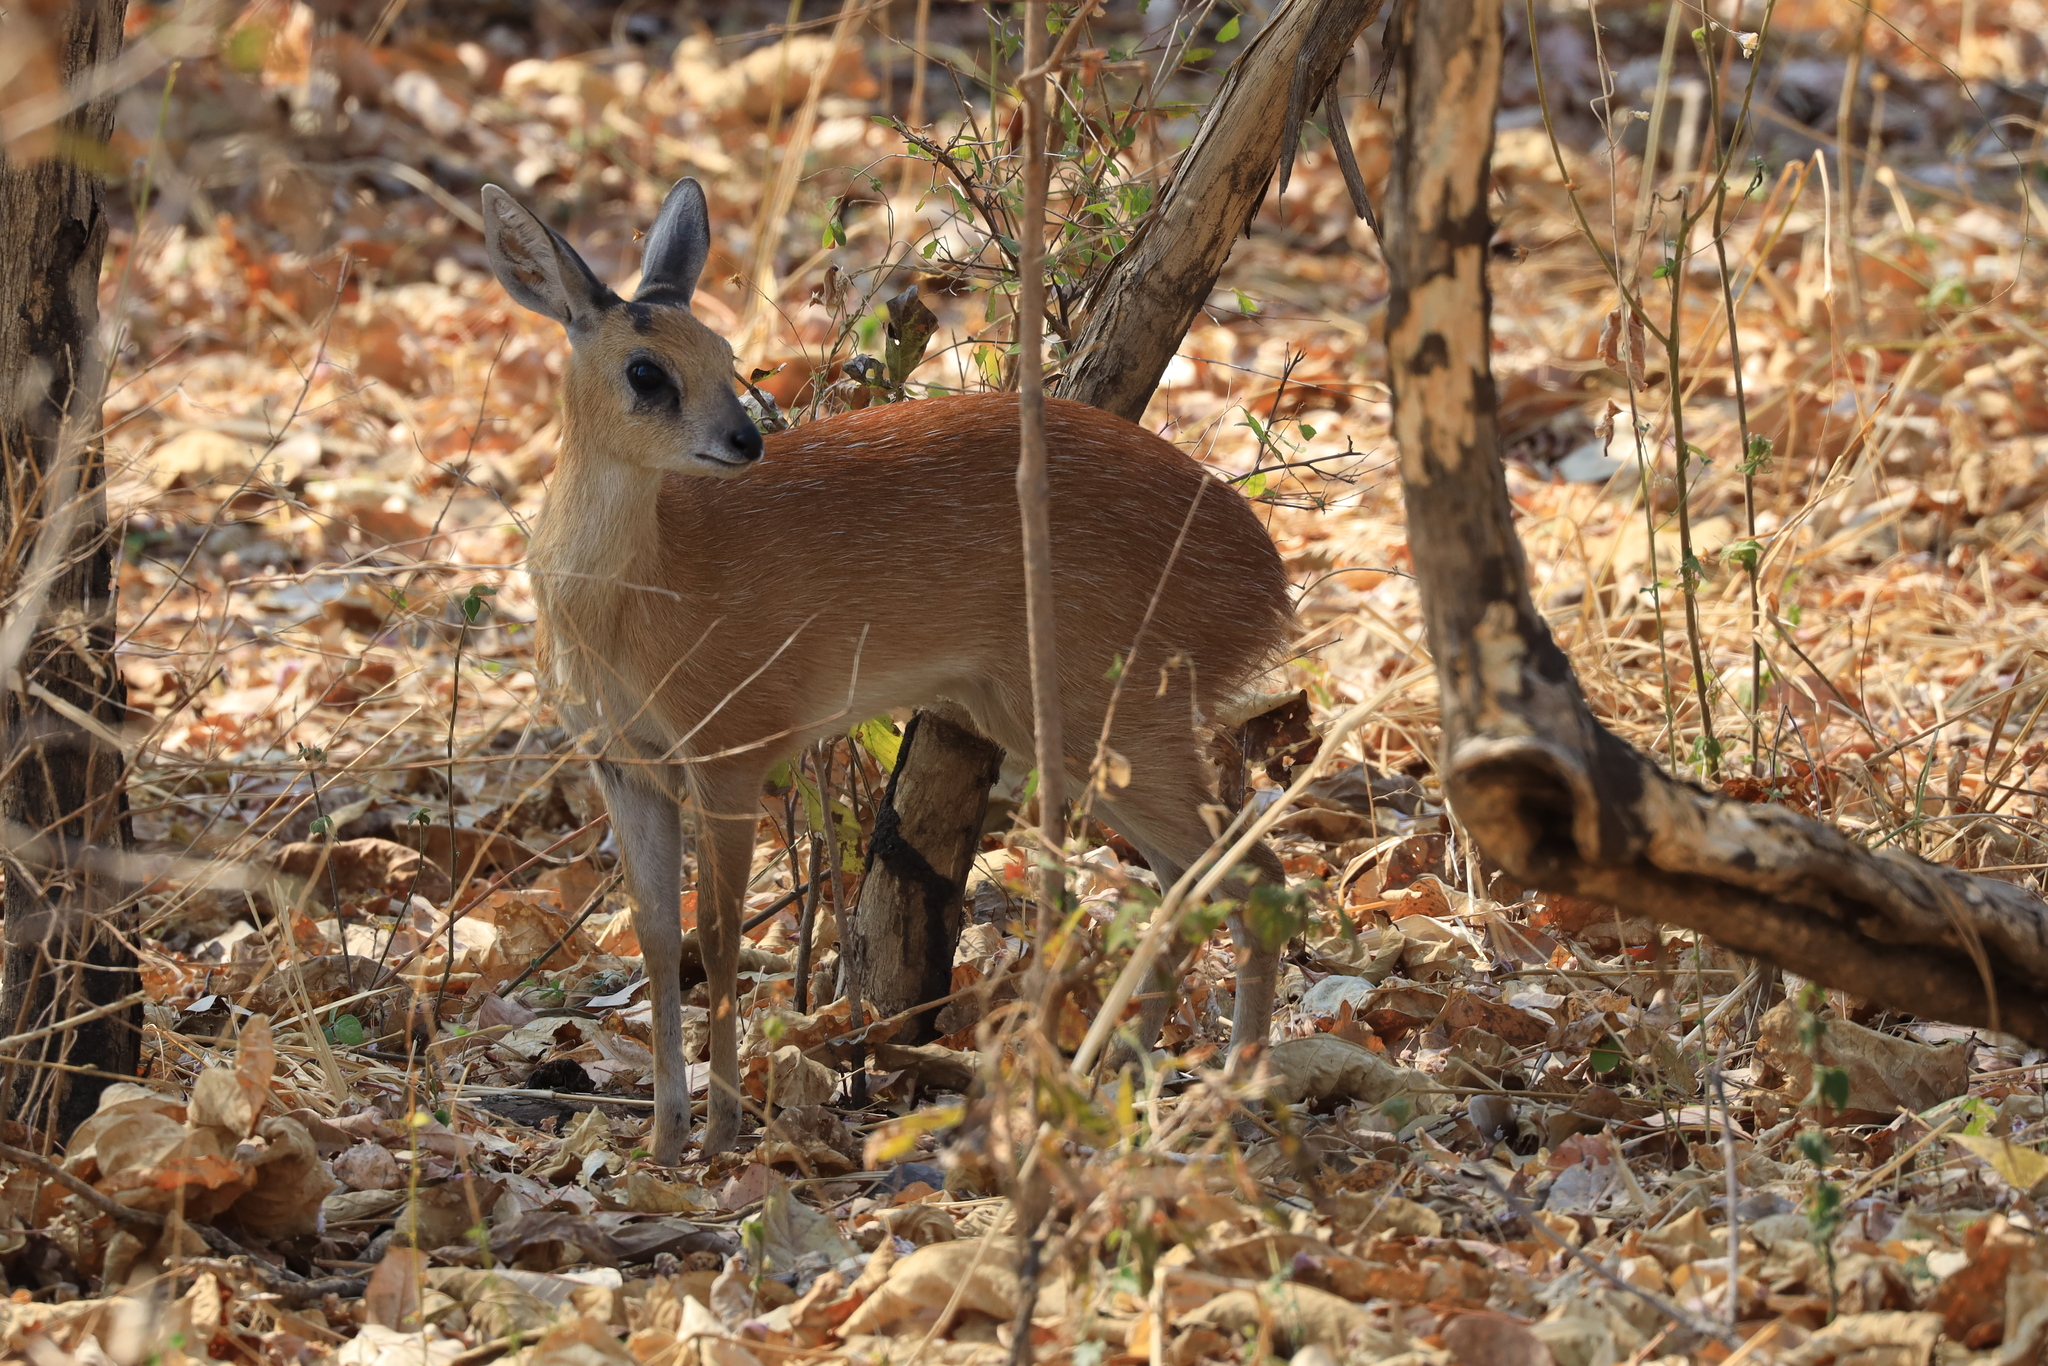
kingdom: Animalia
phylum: Chordata
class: Mammalia
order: Artiodactyla
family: Bovidae
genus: Raphicerus
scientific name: Raphicerus sharpei
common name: Sharpe's grysbok
